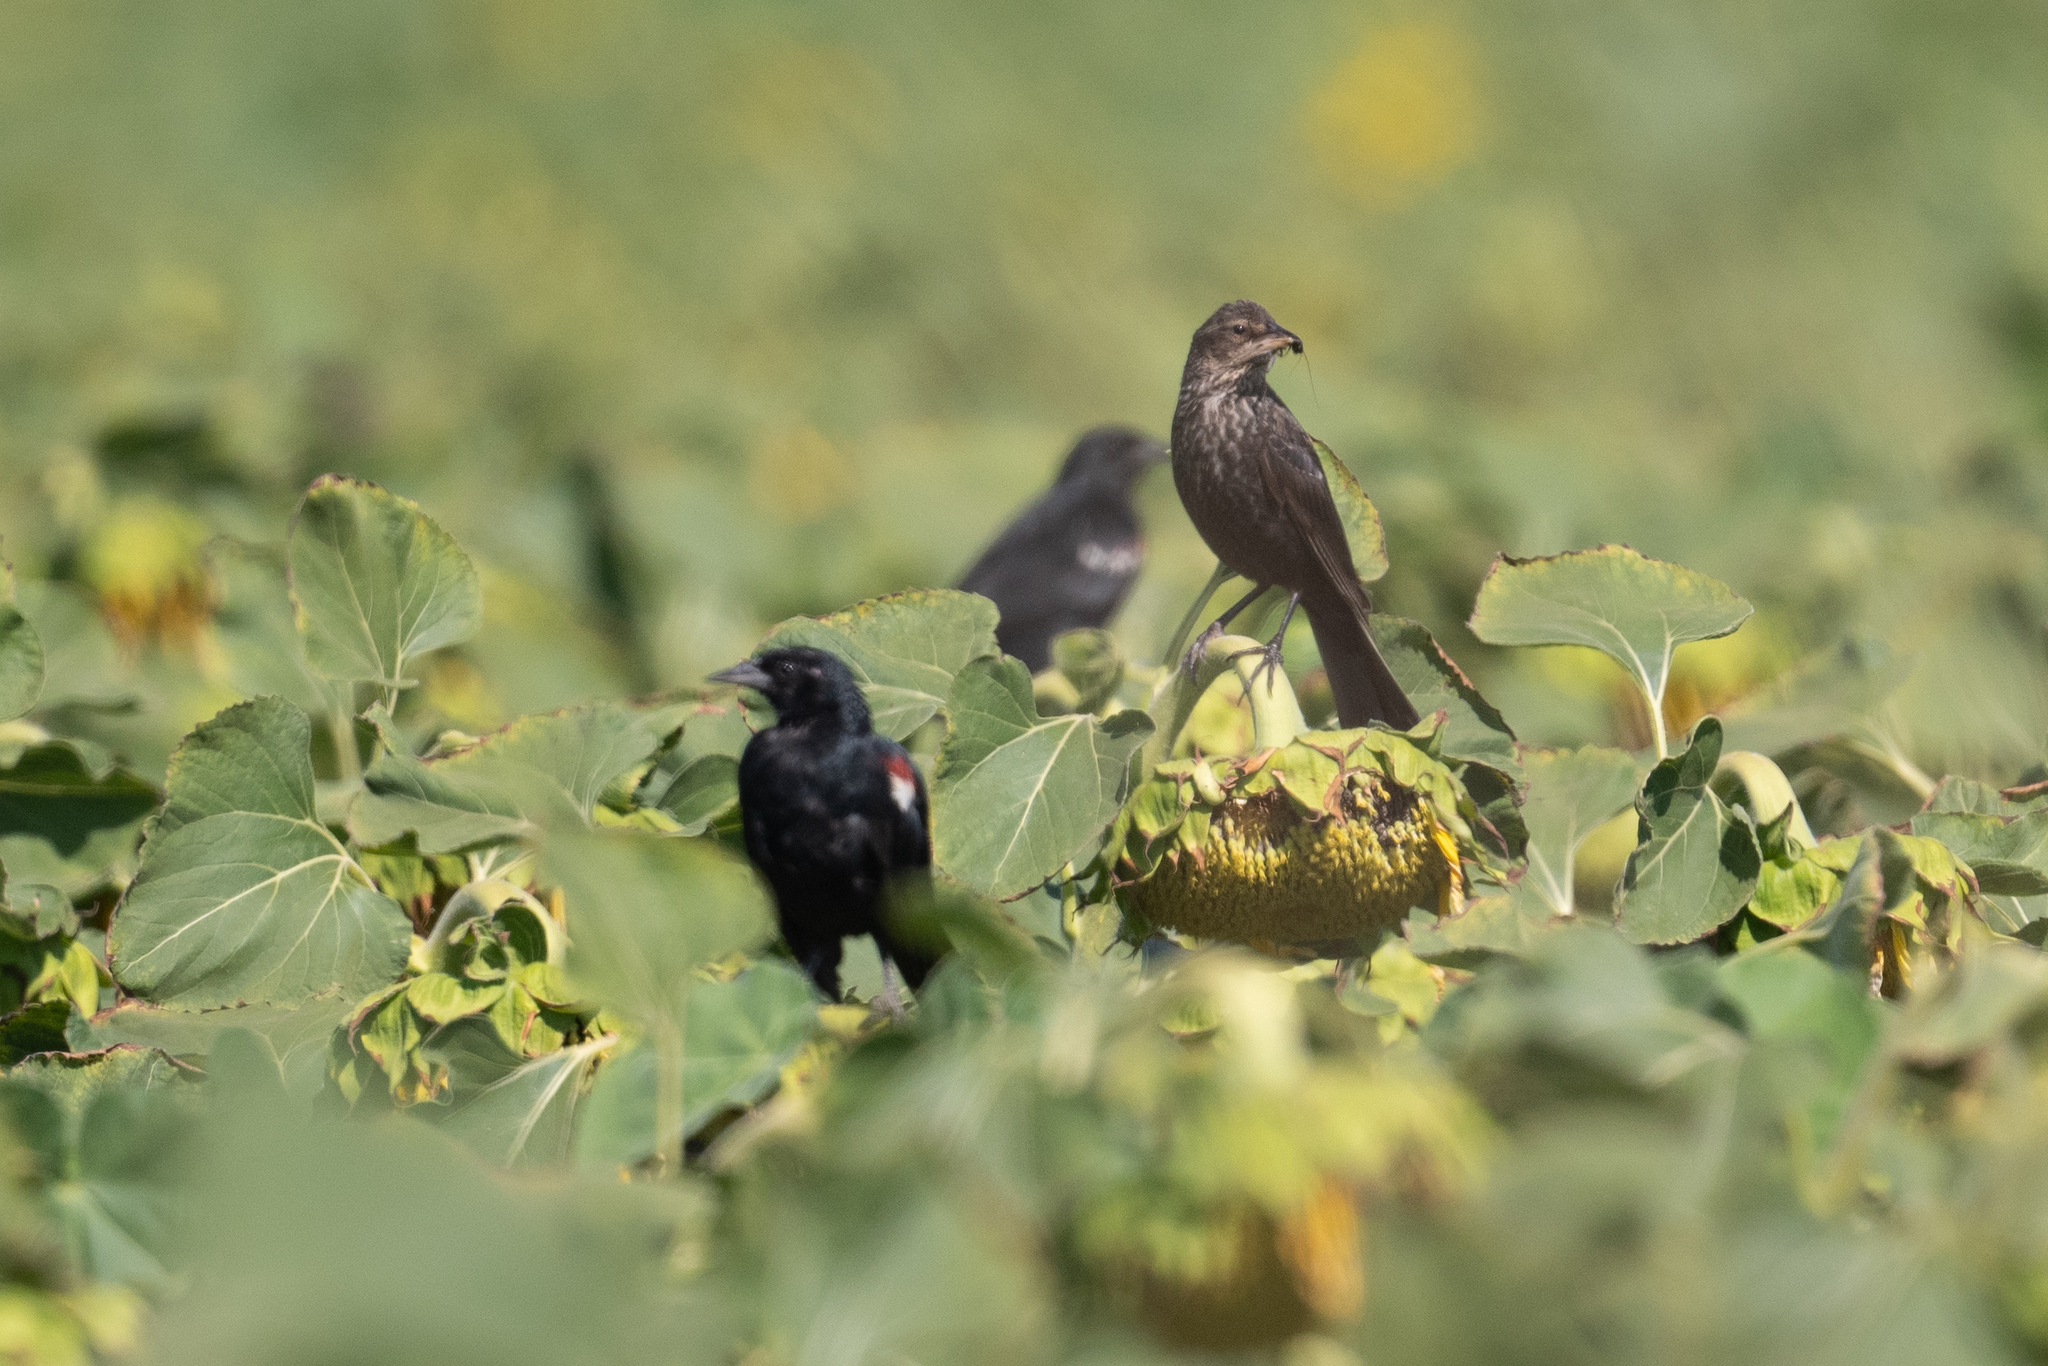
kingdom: Animalia
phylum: Chordata
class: Aves
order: Passeriformes
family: Icteridae
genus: Agelaius
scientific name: Agelaius tricolor
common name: Tricolored blackbird
